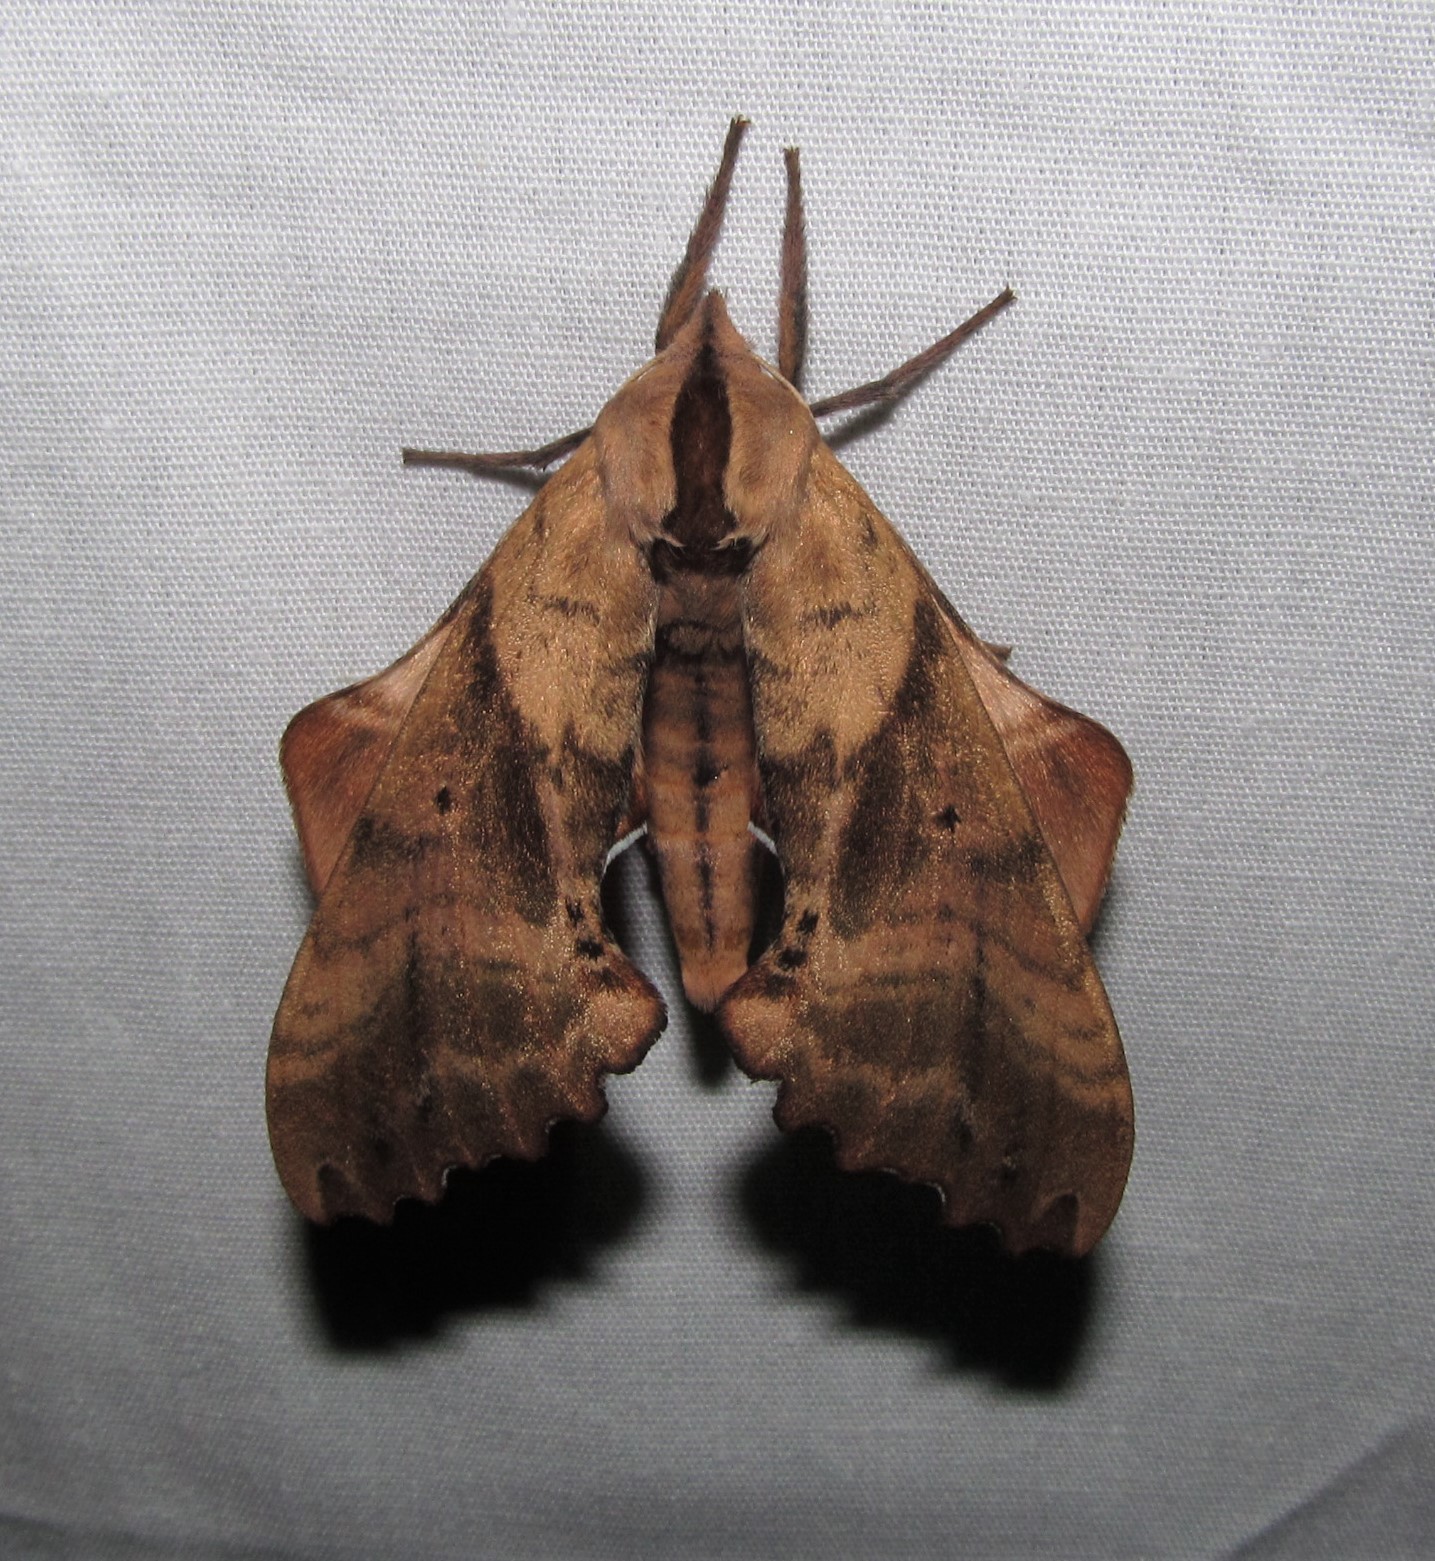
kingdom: Animalia
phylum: Arthropoda
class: Insecta
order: Lepidoptera
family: Sphingidae
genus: Paonias
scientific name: Paonias excaecata
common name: Blind-eyed sphinx
